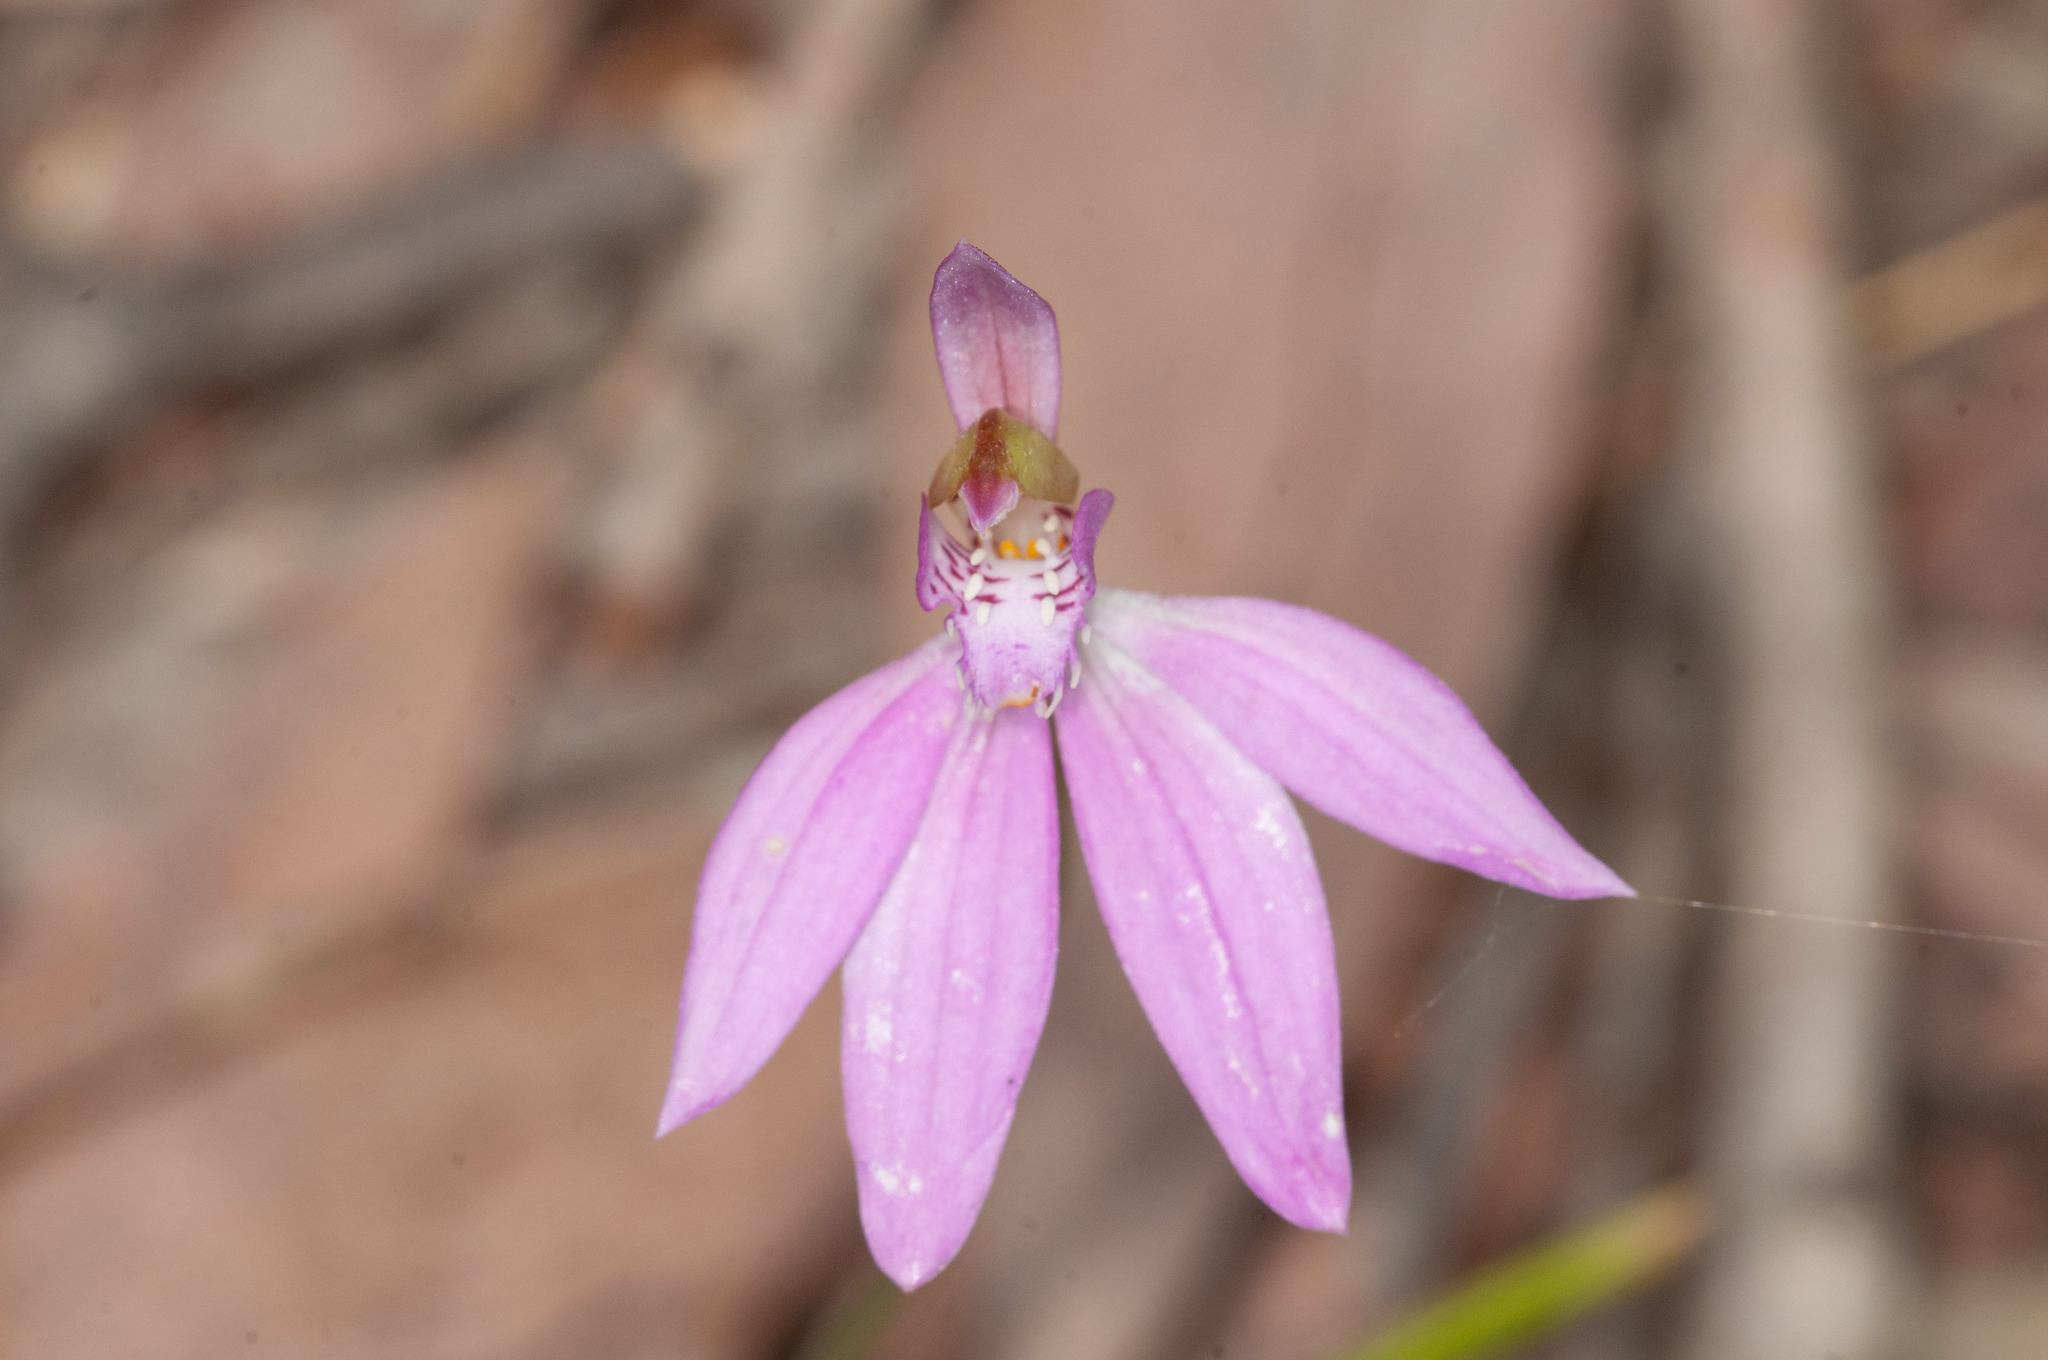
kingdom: Plantae
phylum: Tracheophyta
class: Liliopsida
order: Asparagales
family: Orchidaceae
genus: Caladenia
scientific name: Caladenia carnea
